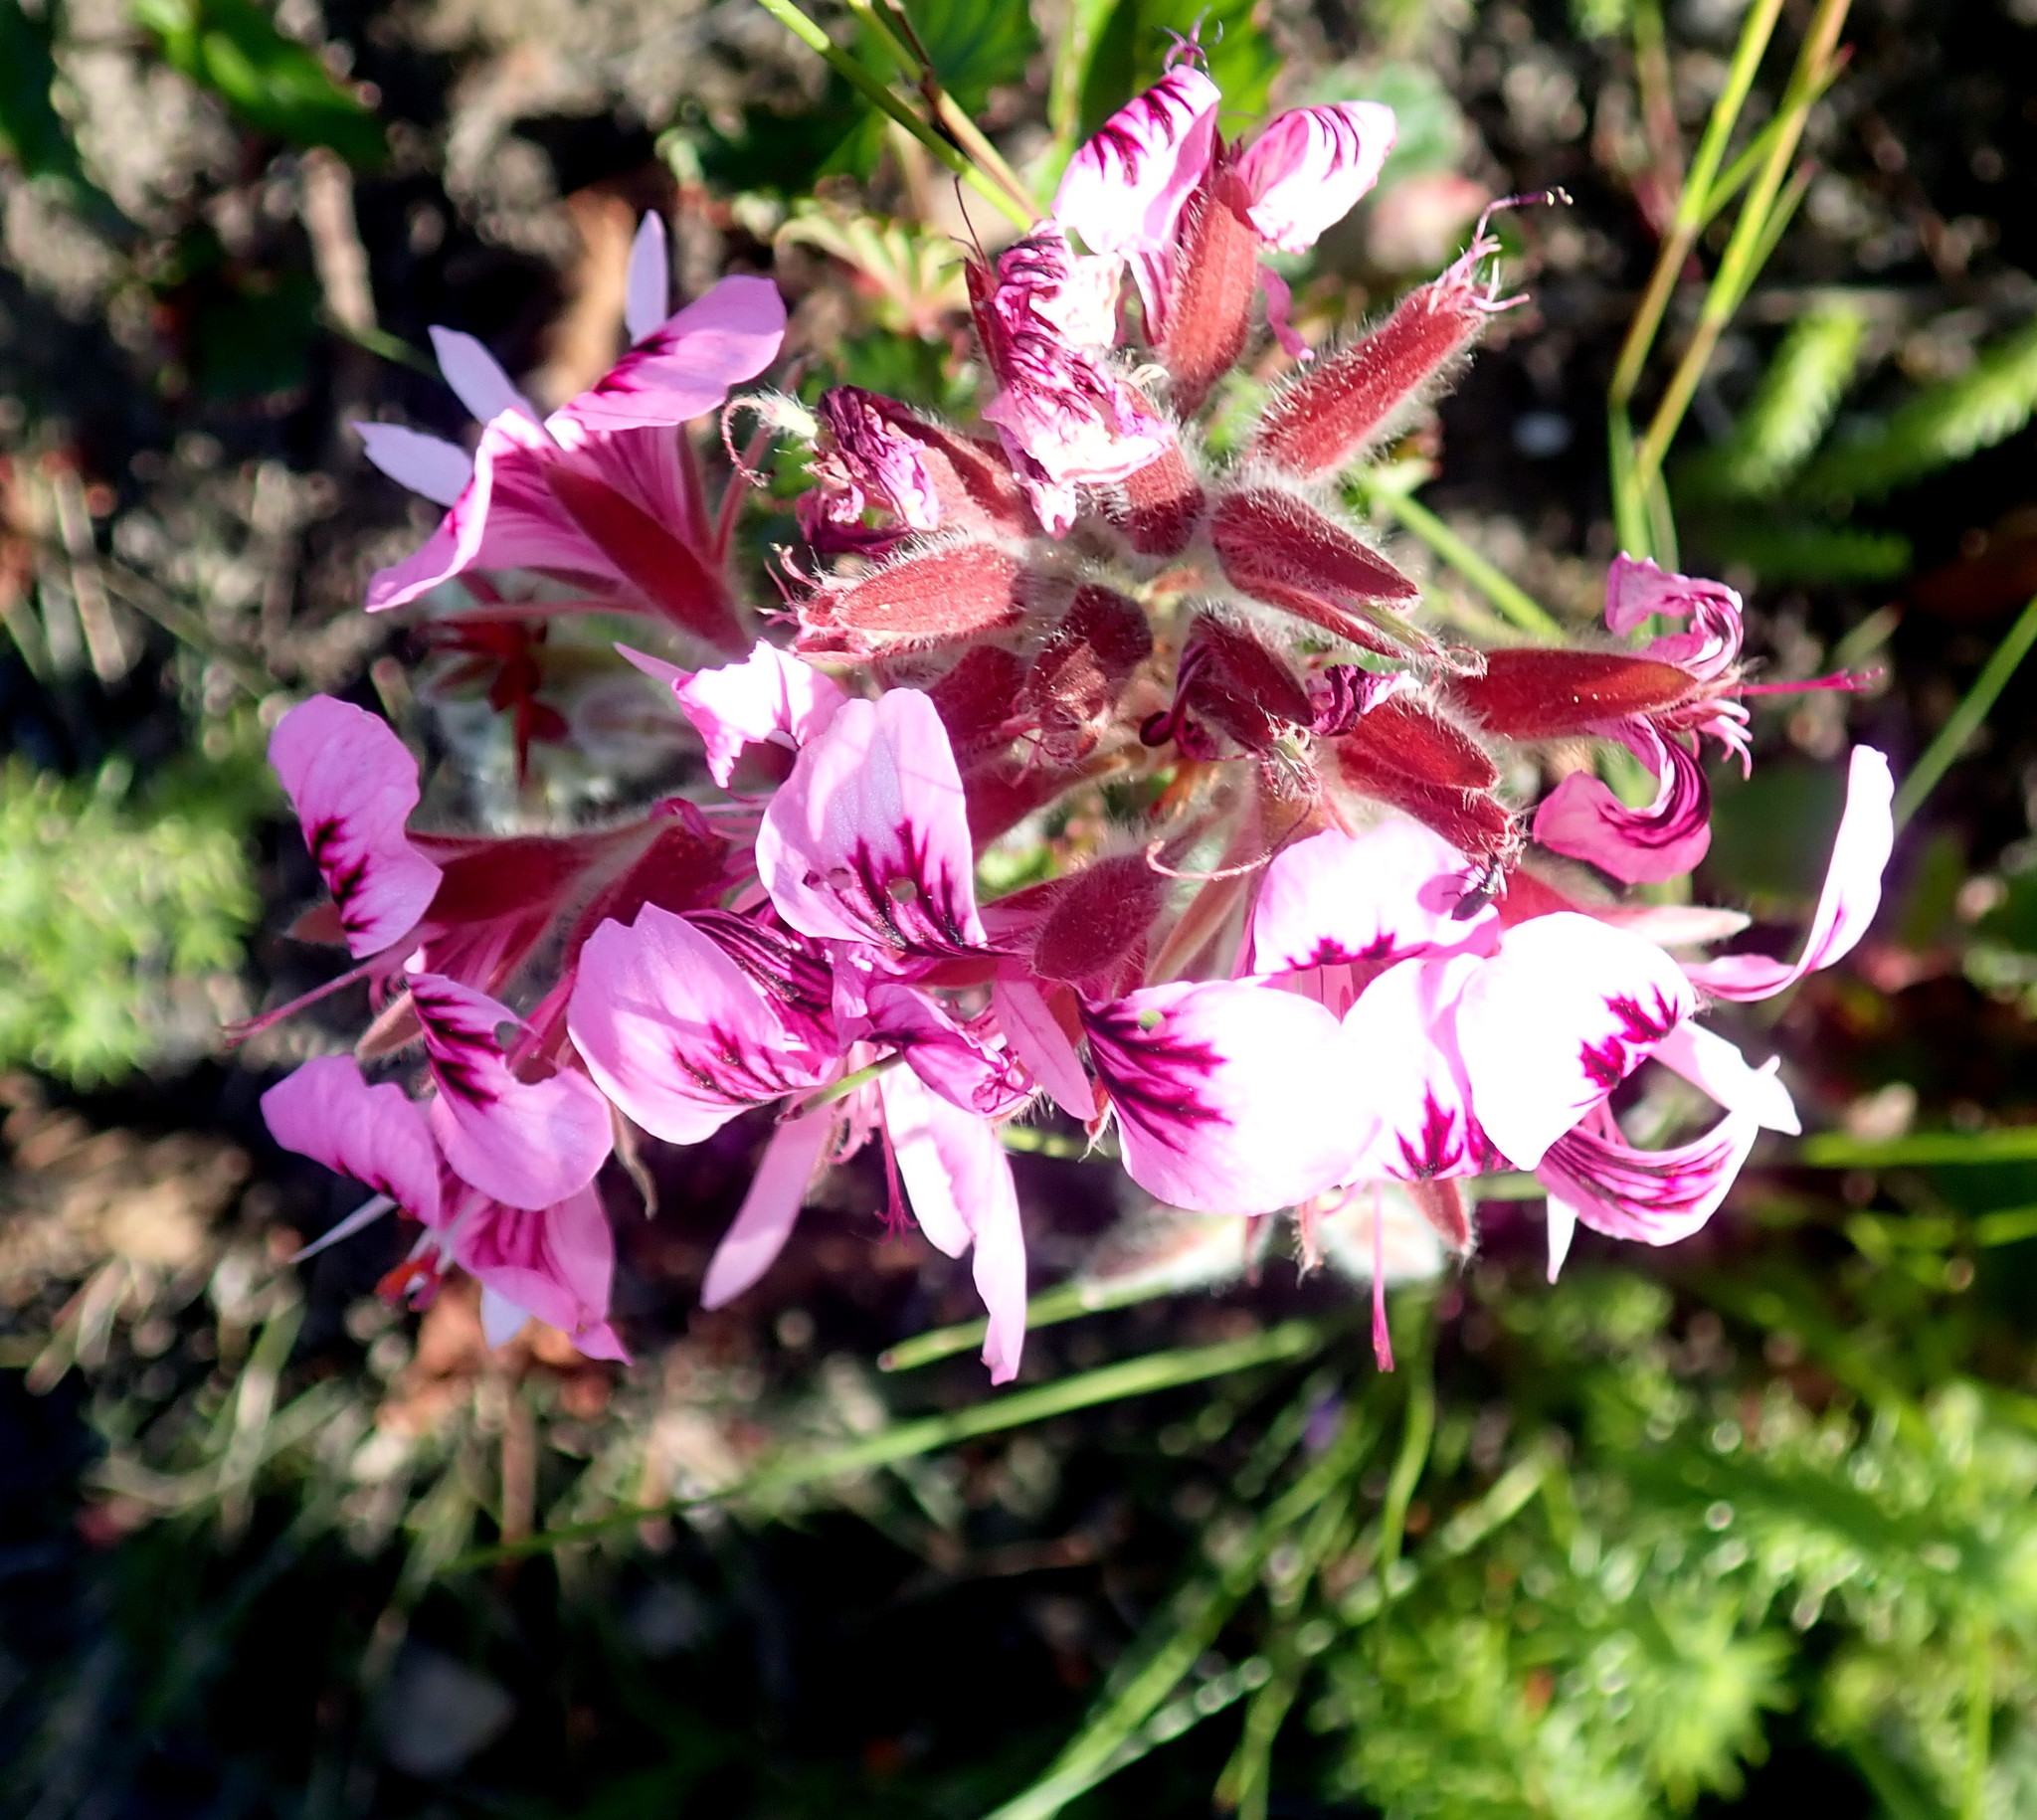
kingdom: Plantae
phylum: Tracheophyta
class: Magnoliopsida
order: Geraniales
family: Geraniaceae
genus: Pelargonium
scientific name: Pelargonium cordifolium
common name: Heart-leaf pelargonium
